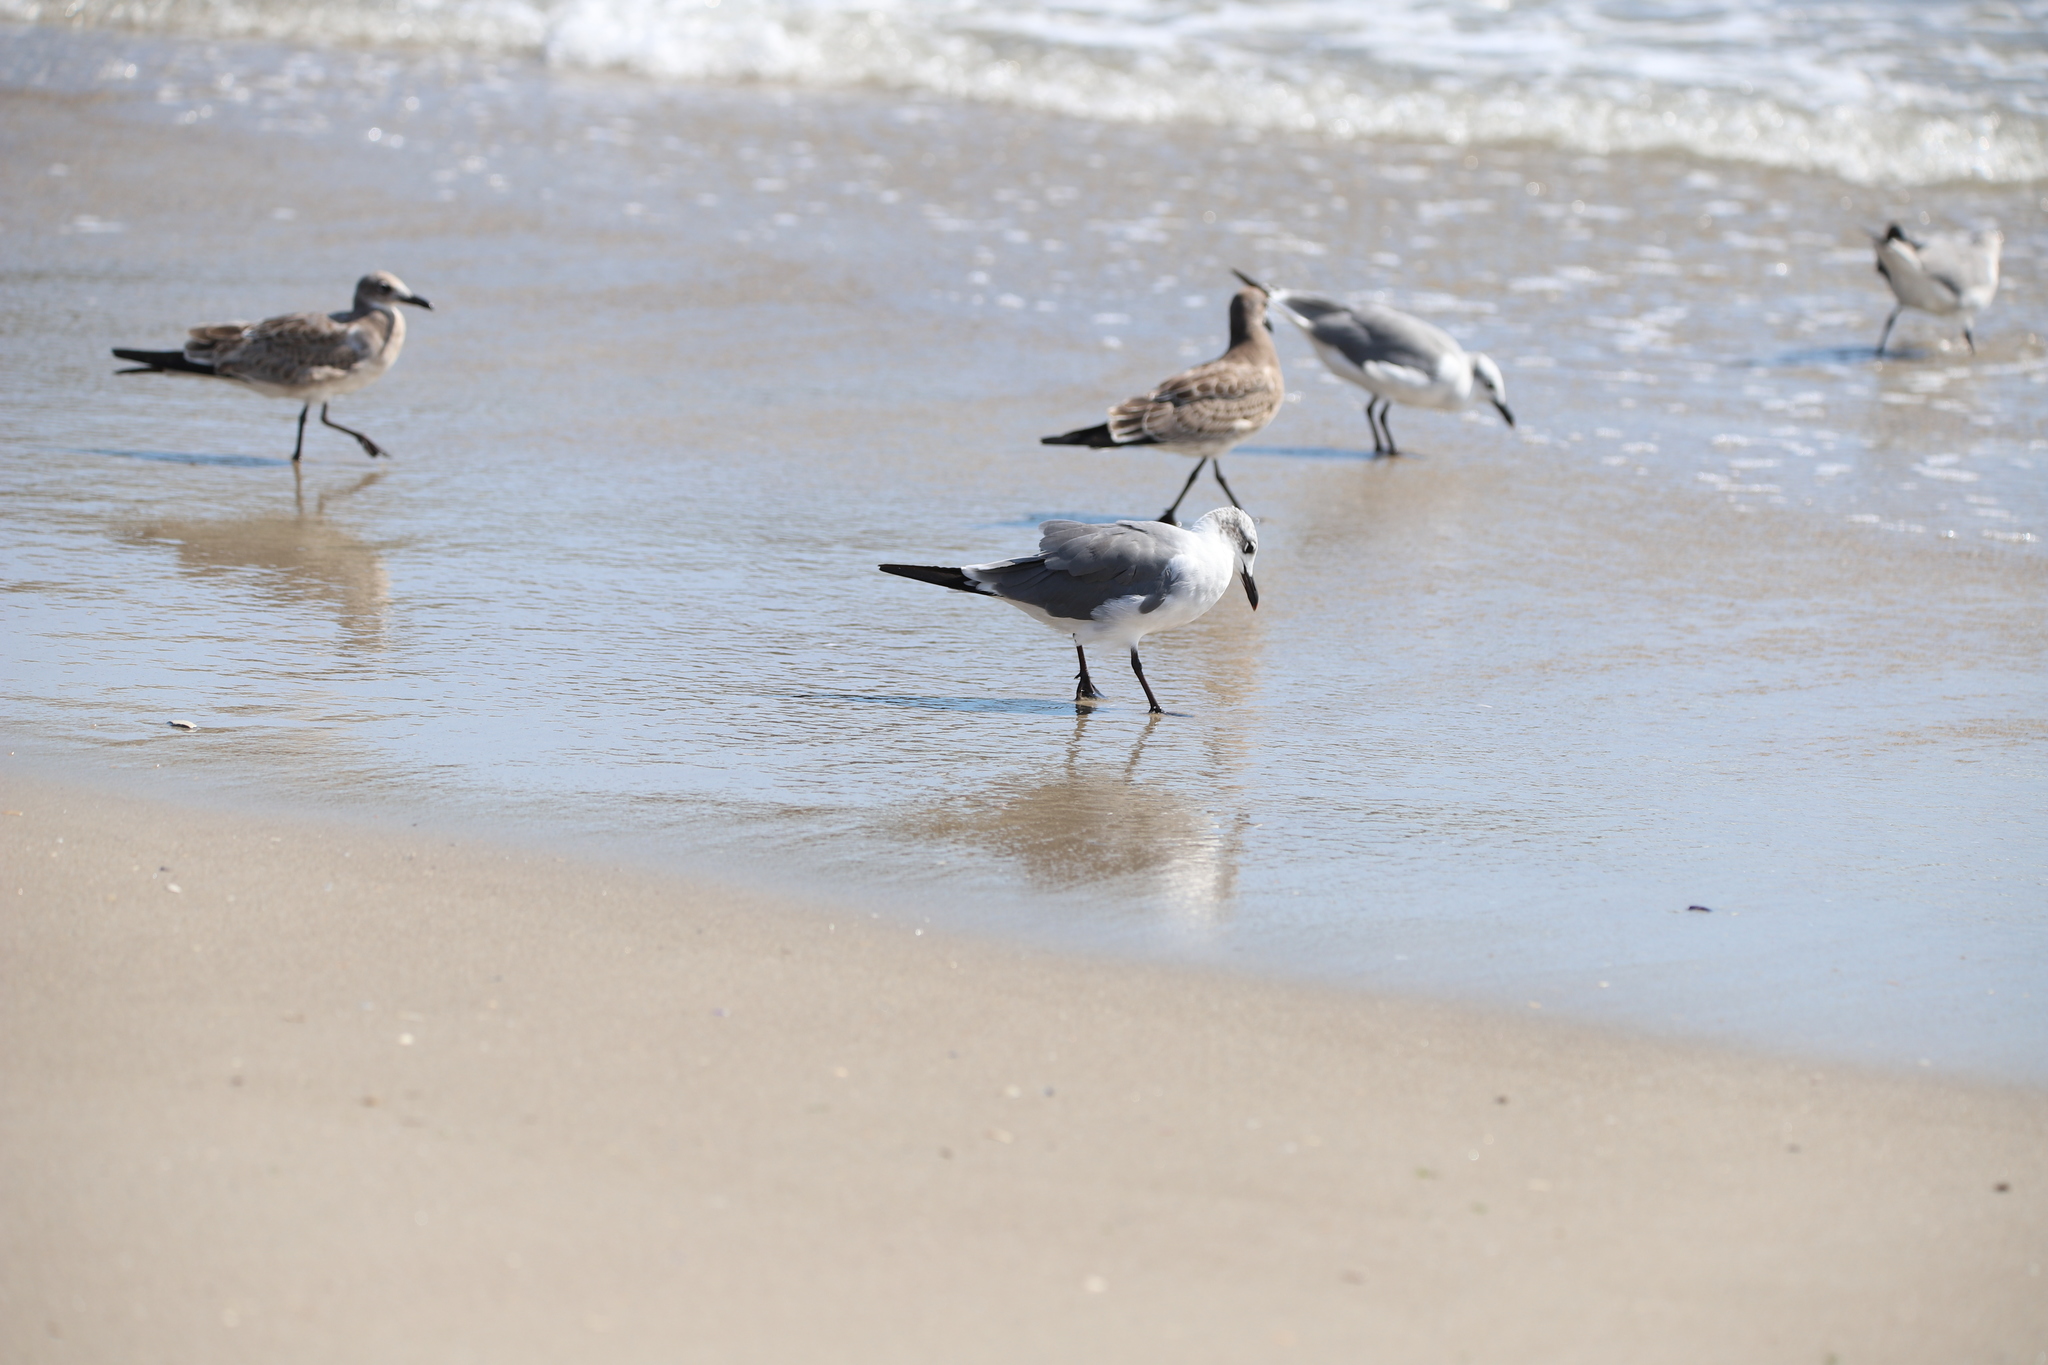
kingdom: Animalia
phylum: Chordata
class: Aves
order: Charadriiformes
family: Laridae
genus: Leucophaeus
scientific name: Leucophaeus atricilla
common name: Laughing gull
